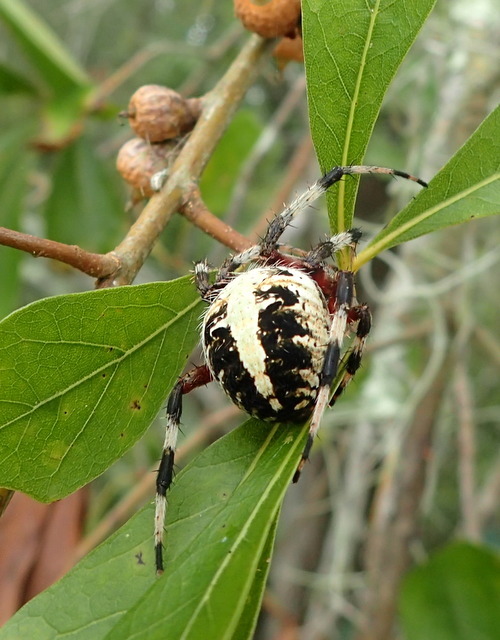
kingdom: Animalia
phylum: Arthropoda
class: Arachnida
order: Araneae
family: Araneidae
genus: Neoscona
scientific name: Neoscona domiciliorum
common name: Red-femured spotted orbweaver
